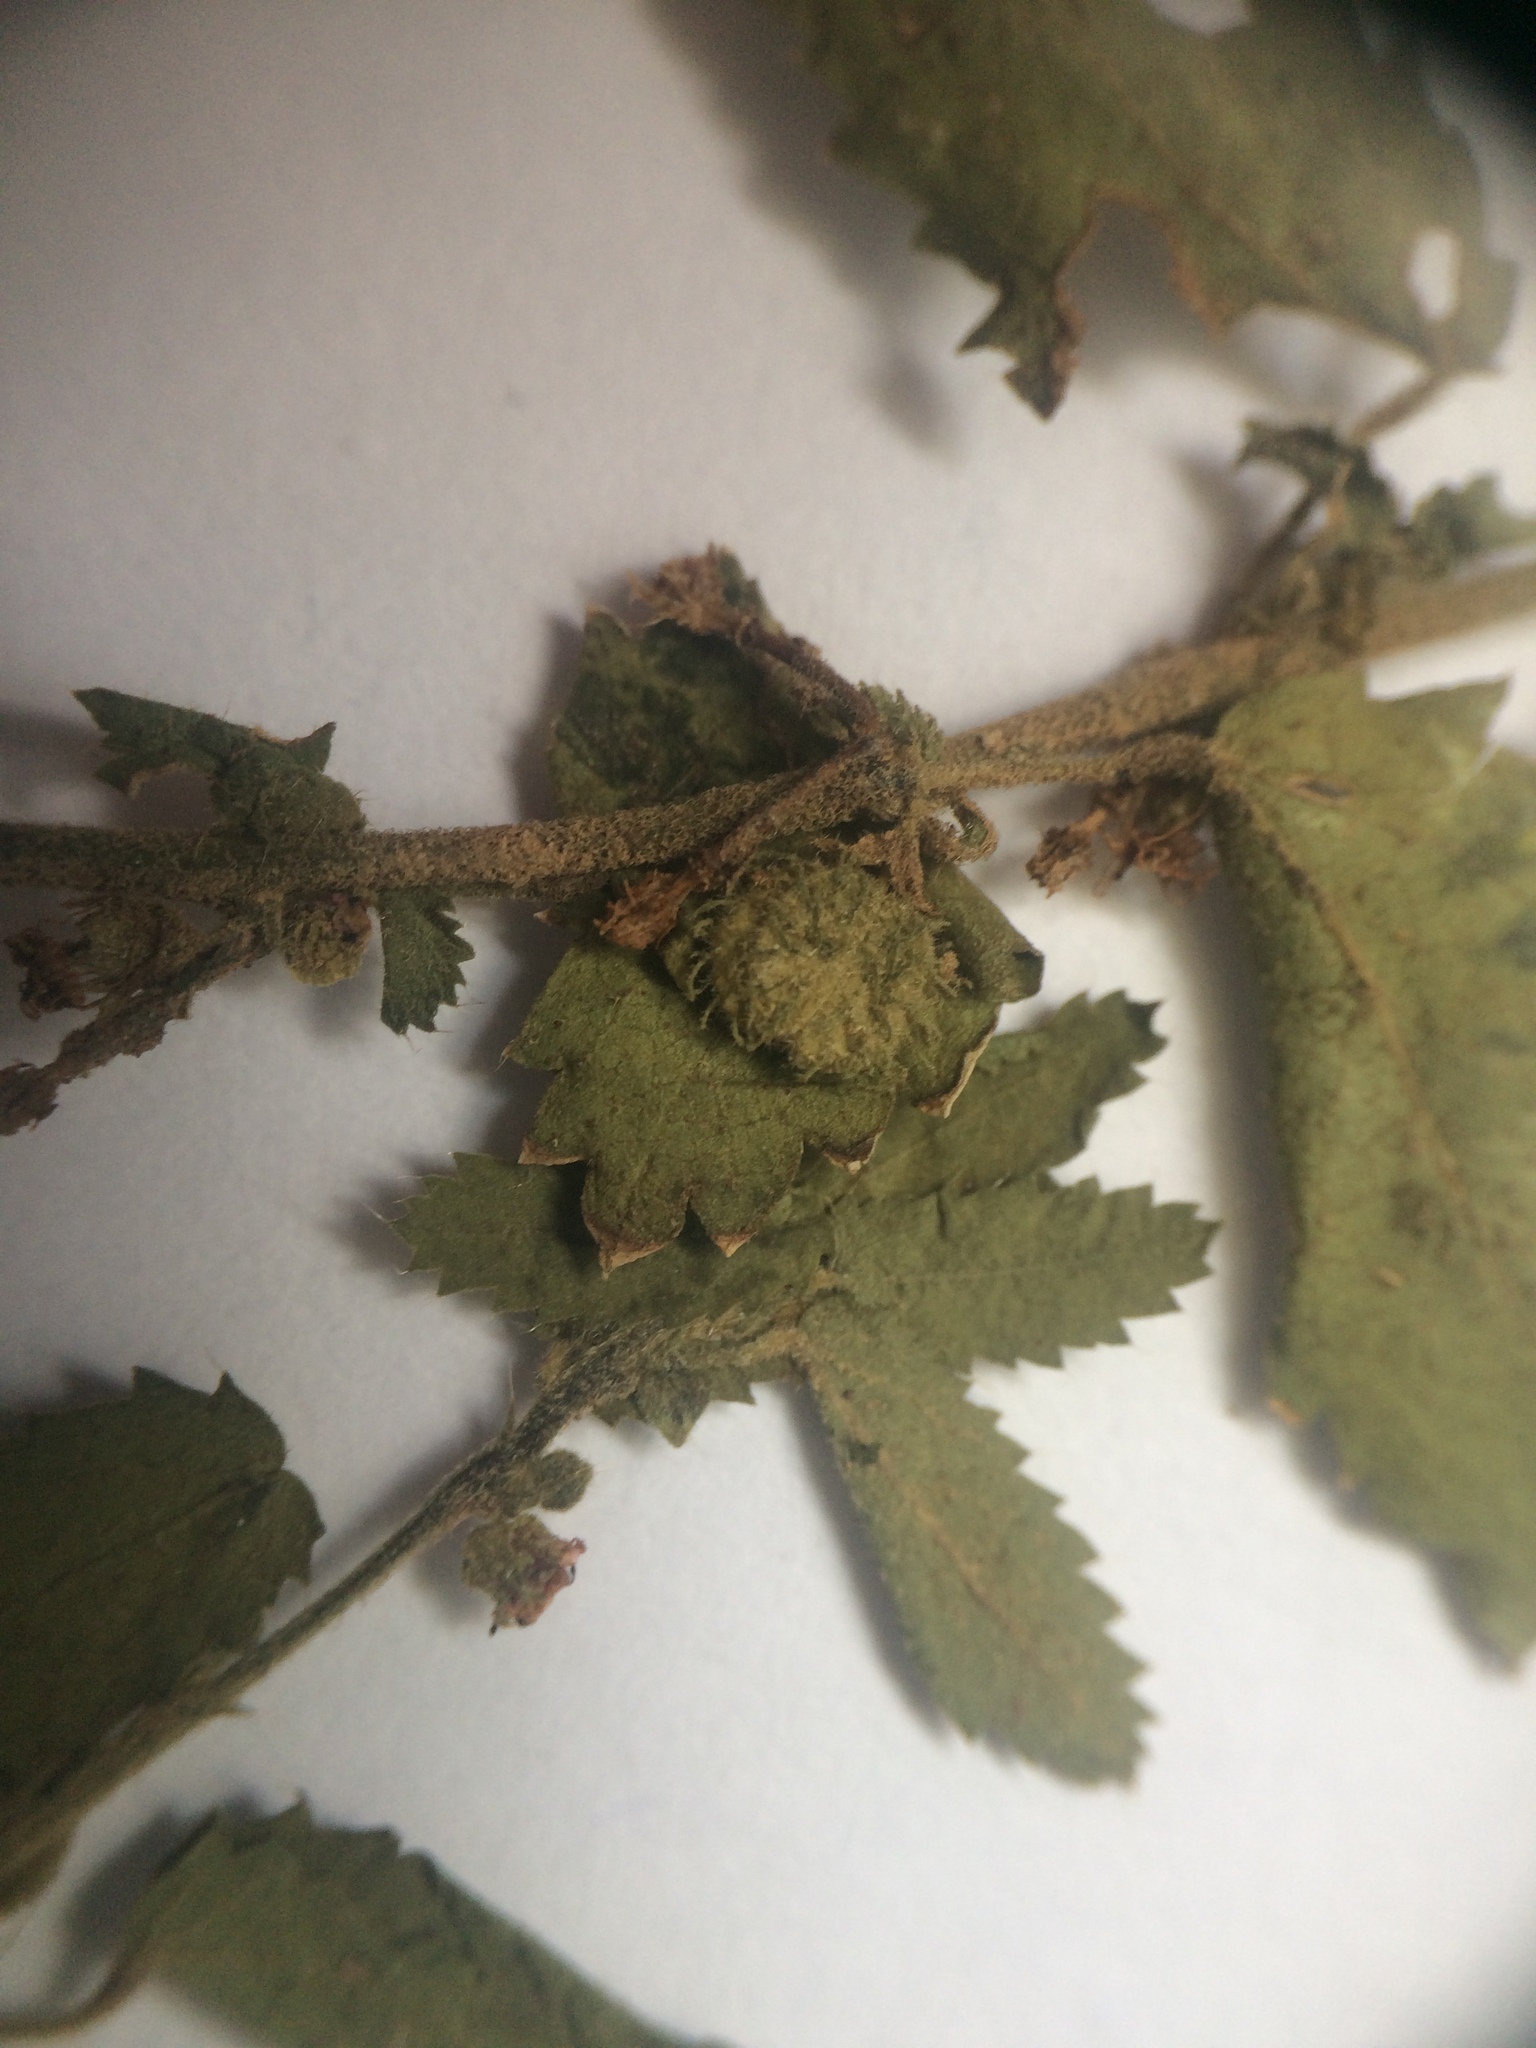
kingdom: Plantae
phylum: Tracheophyta
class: Magnoliopsida
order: Malvales
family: Malvaceae
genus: Ayenia
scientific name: Ayenia odonellii
